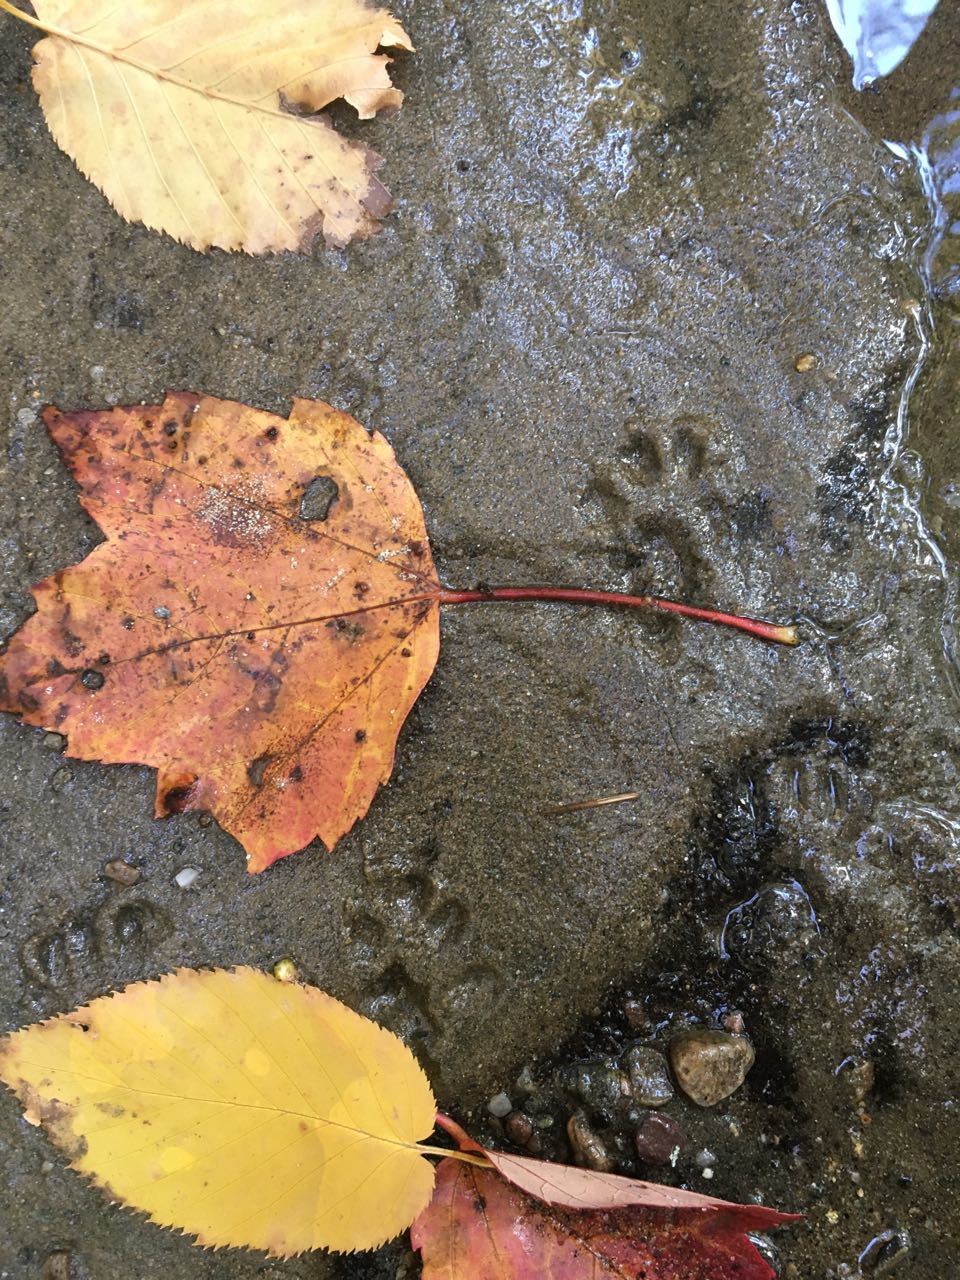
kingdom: Plantae
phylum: Tracheophyta
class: Magnoliopsida
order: Sapindales
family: Sapindaceae
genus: Acer
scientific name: Acer rubrum
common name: Red maple
